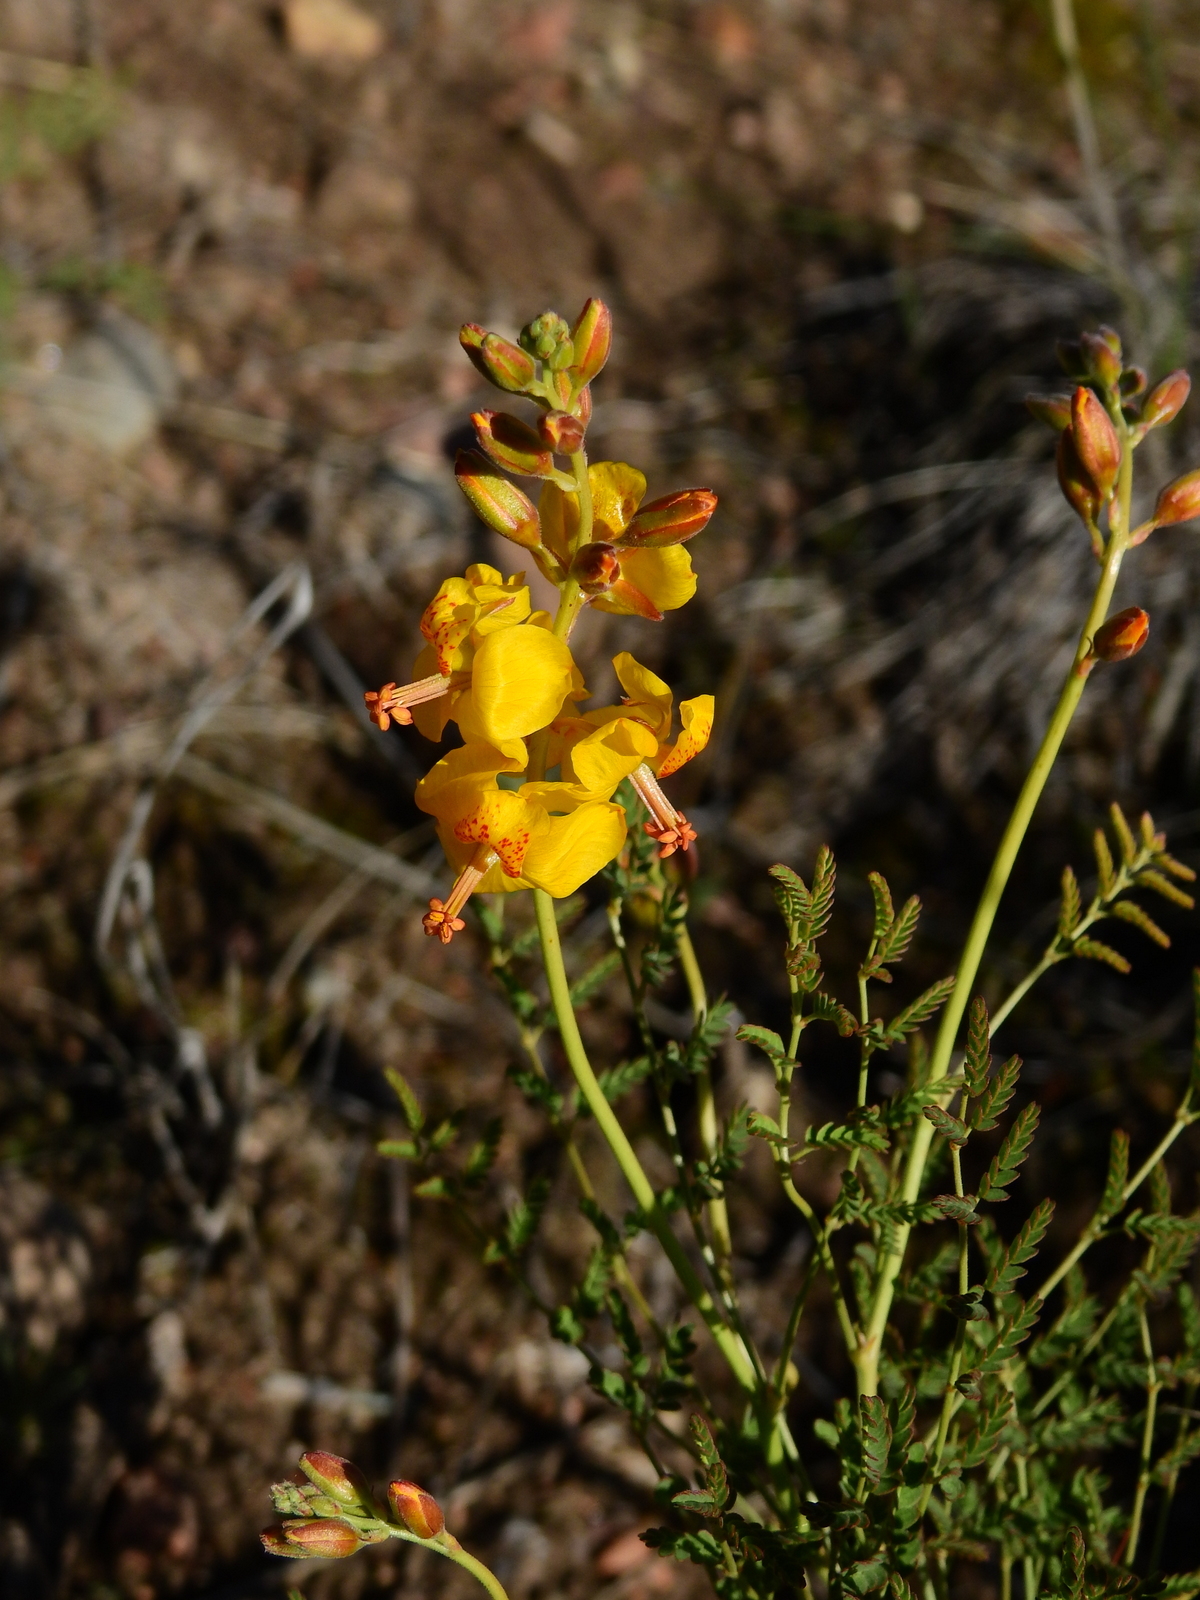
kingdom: Plantae
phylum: Tracheophyta
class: Magnoliopsida
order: Fabales
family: Fabaceae
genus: Hoffmannseggia
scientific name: Hoffmannseggia erecta
